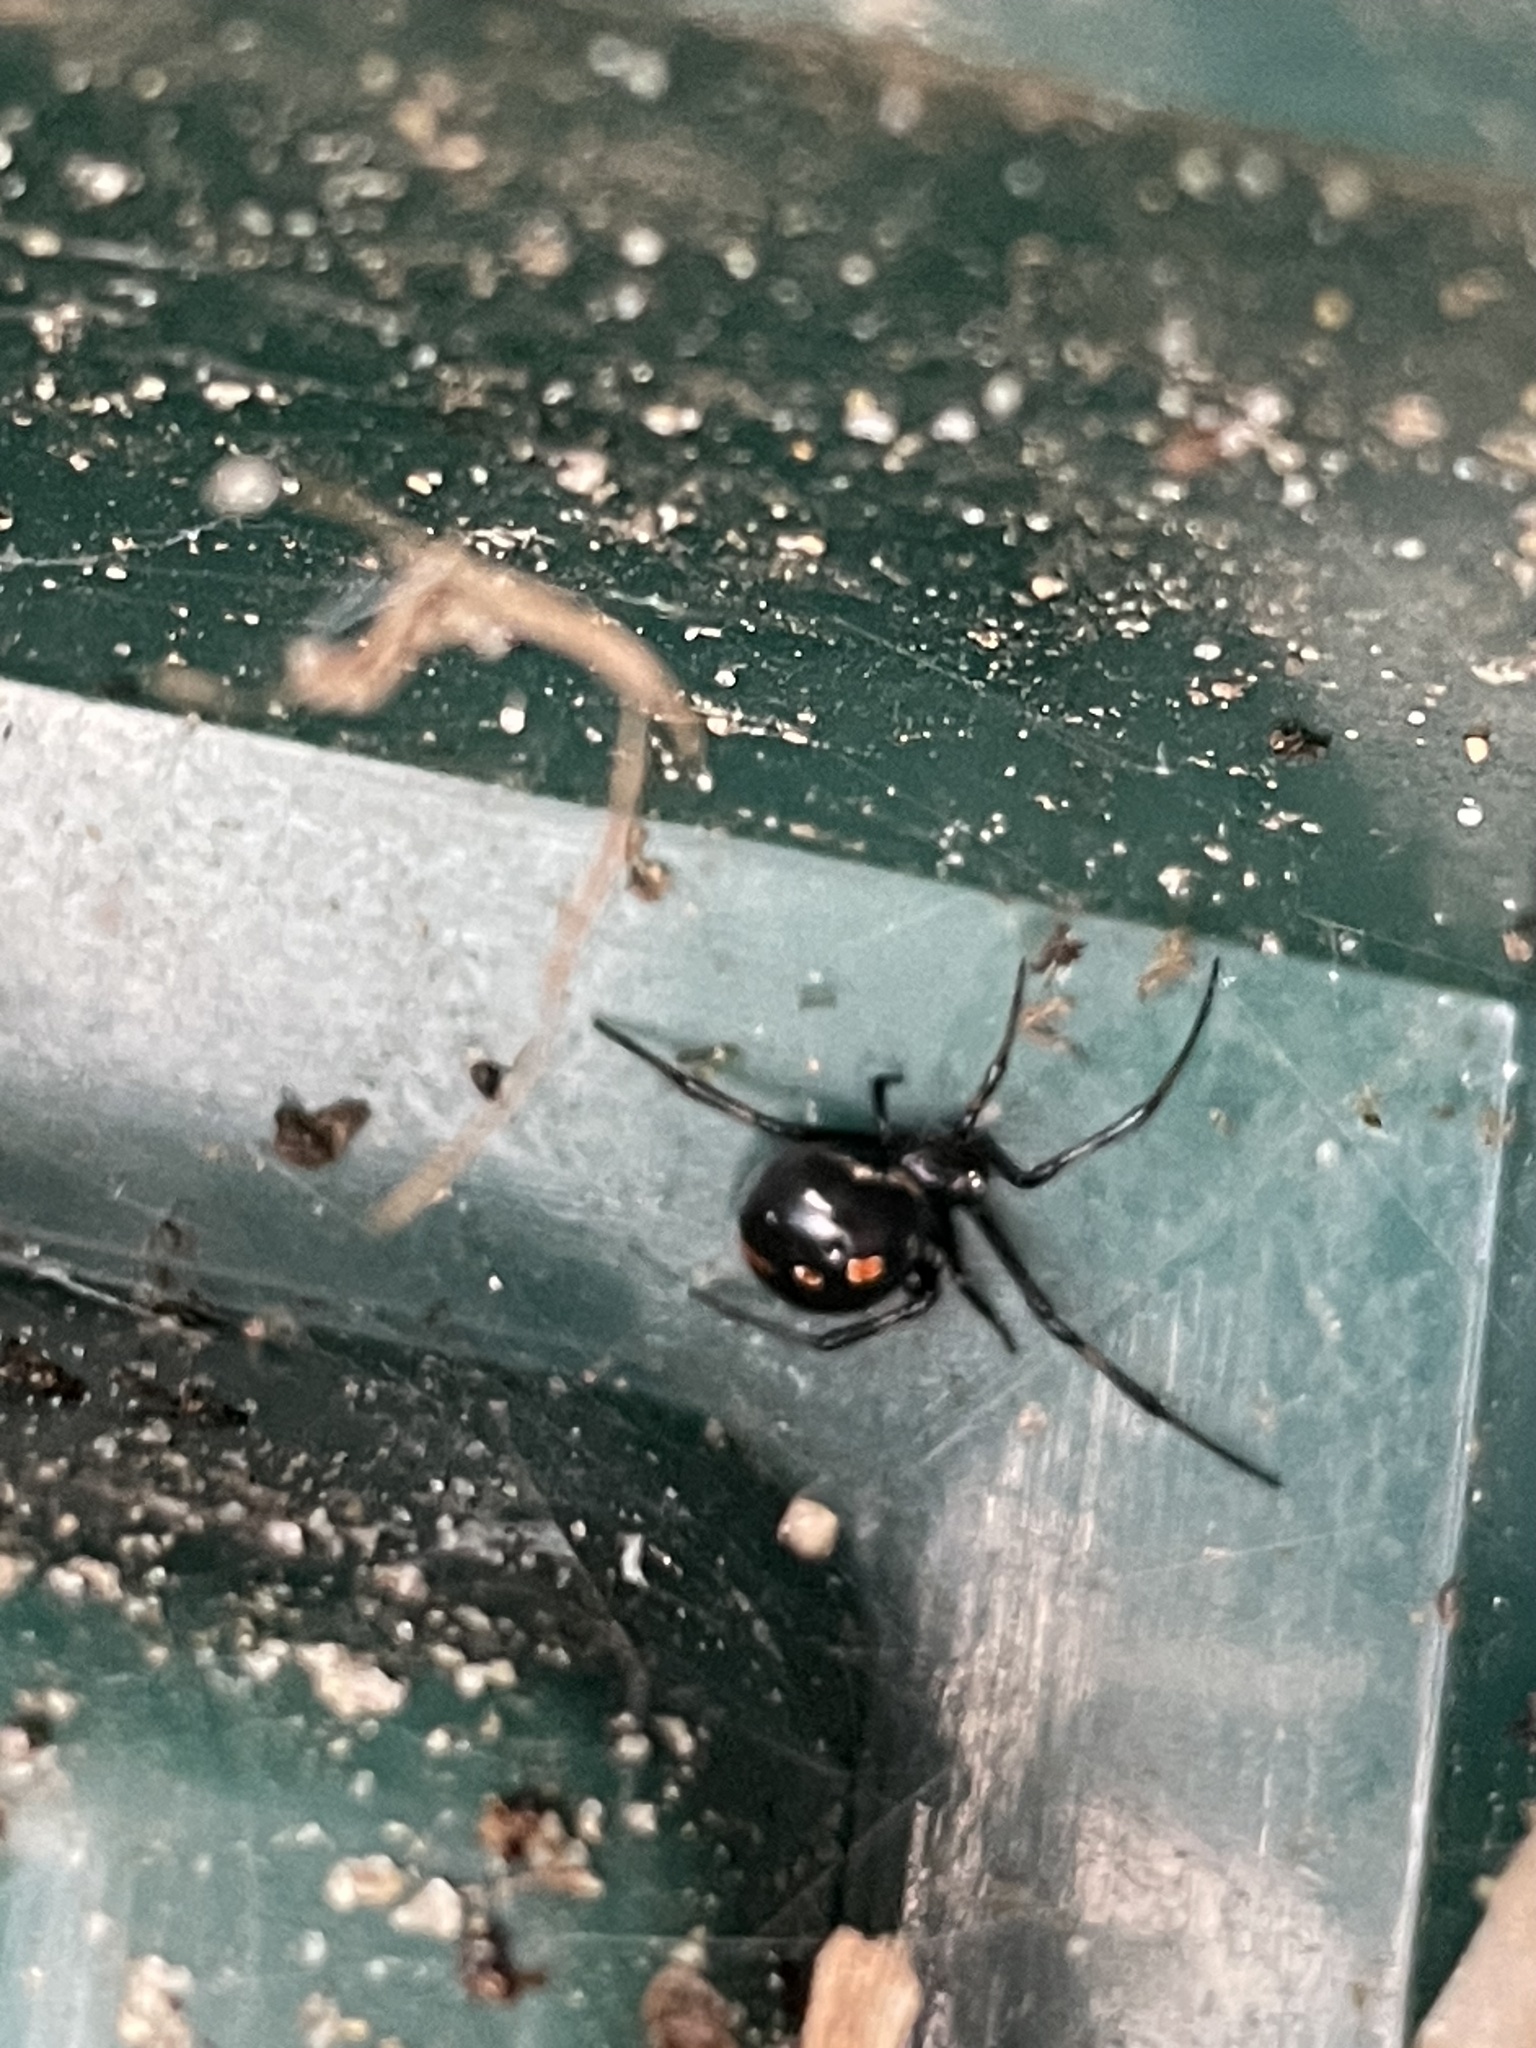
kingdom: Animalia
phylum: Arthropoda
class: Arachnida
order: Araneae
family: Theridiidae
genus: Latrodectus
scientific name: Latrodectus mactans
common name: Cobweb spiders
